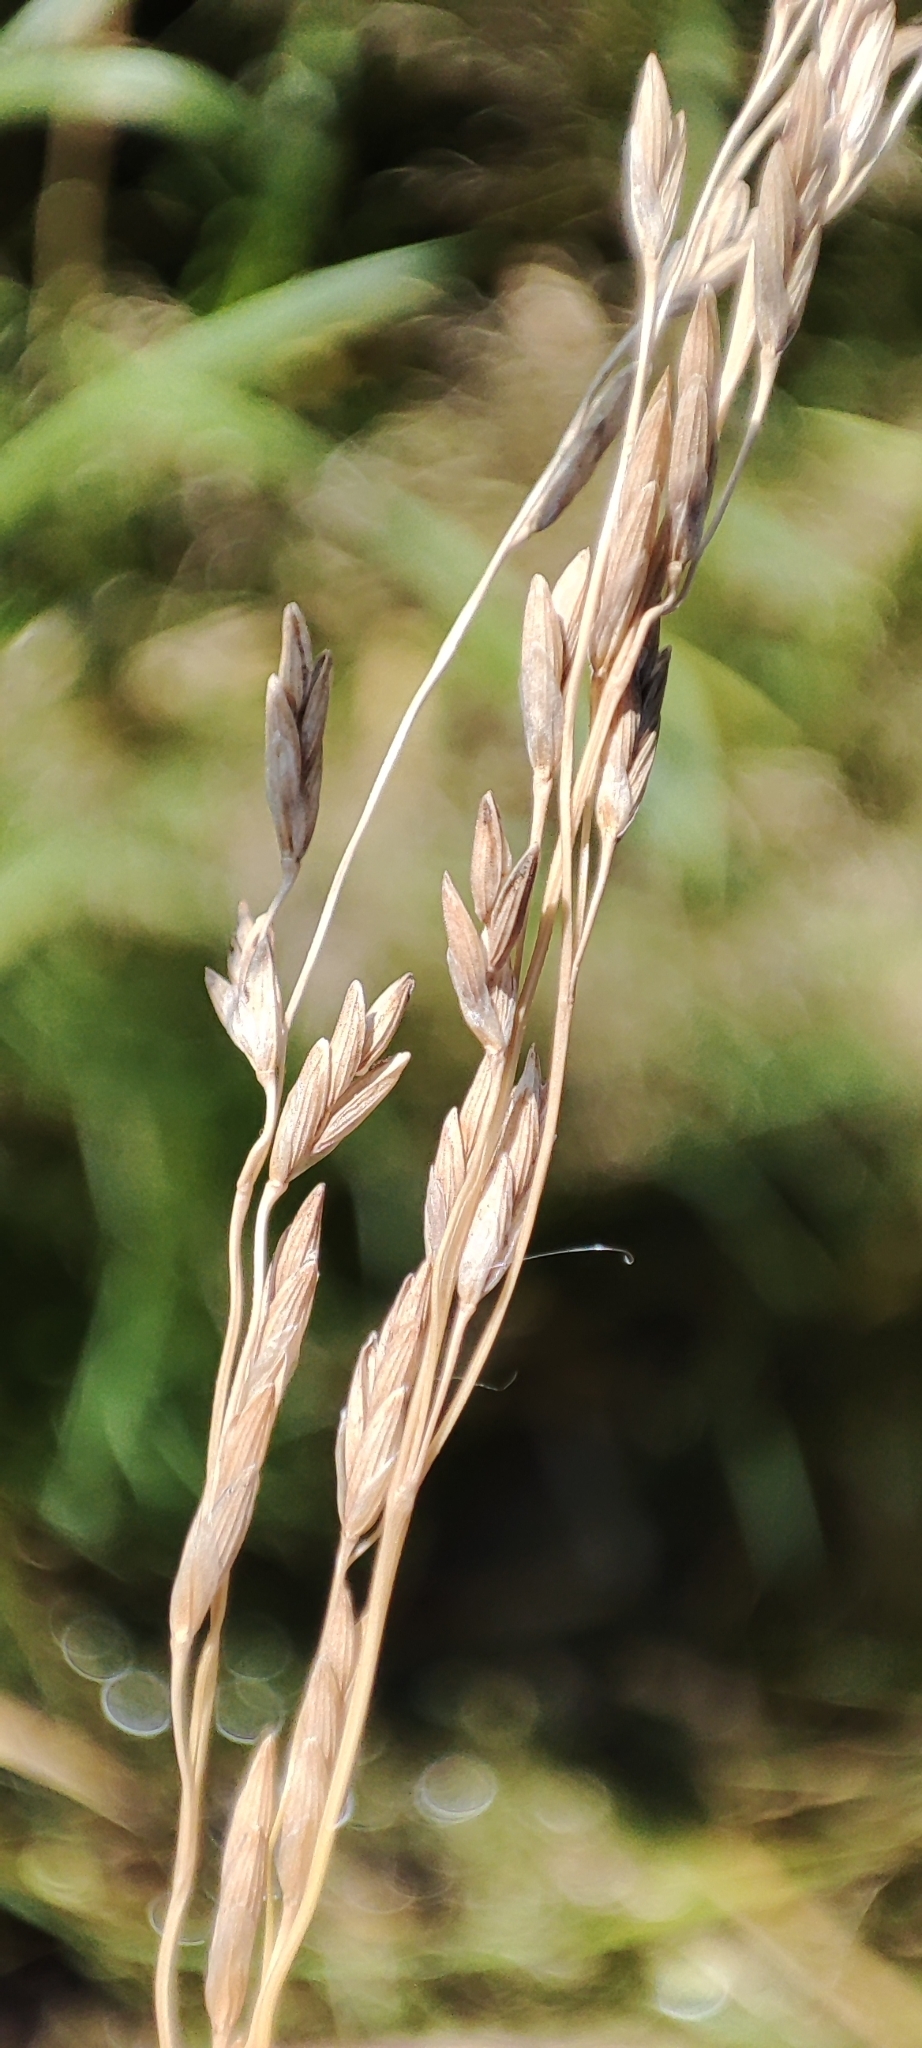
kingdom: Plantae
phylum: Tracheophyta
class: Liliopsida
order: Poales
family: Poaceae
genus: Glyceria
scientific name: Glyceria maxima
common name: Reed mannagrass
